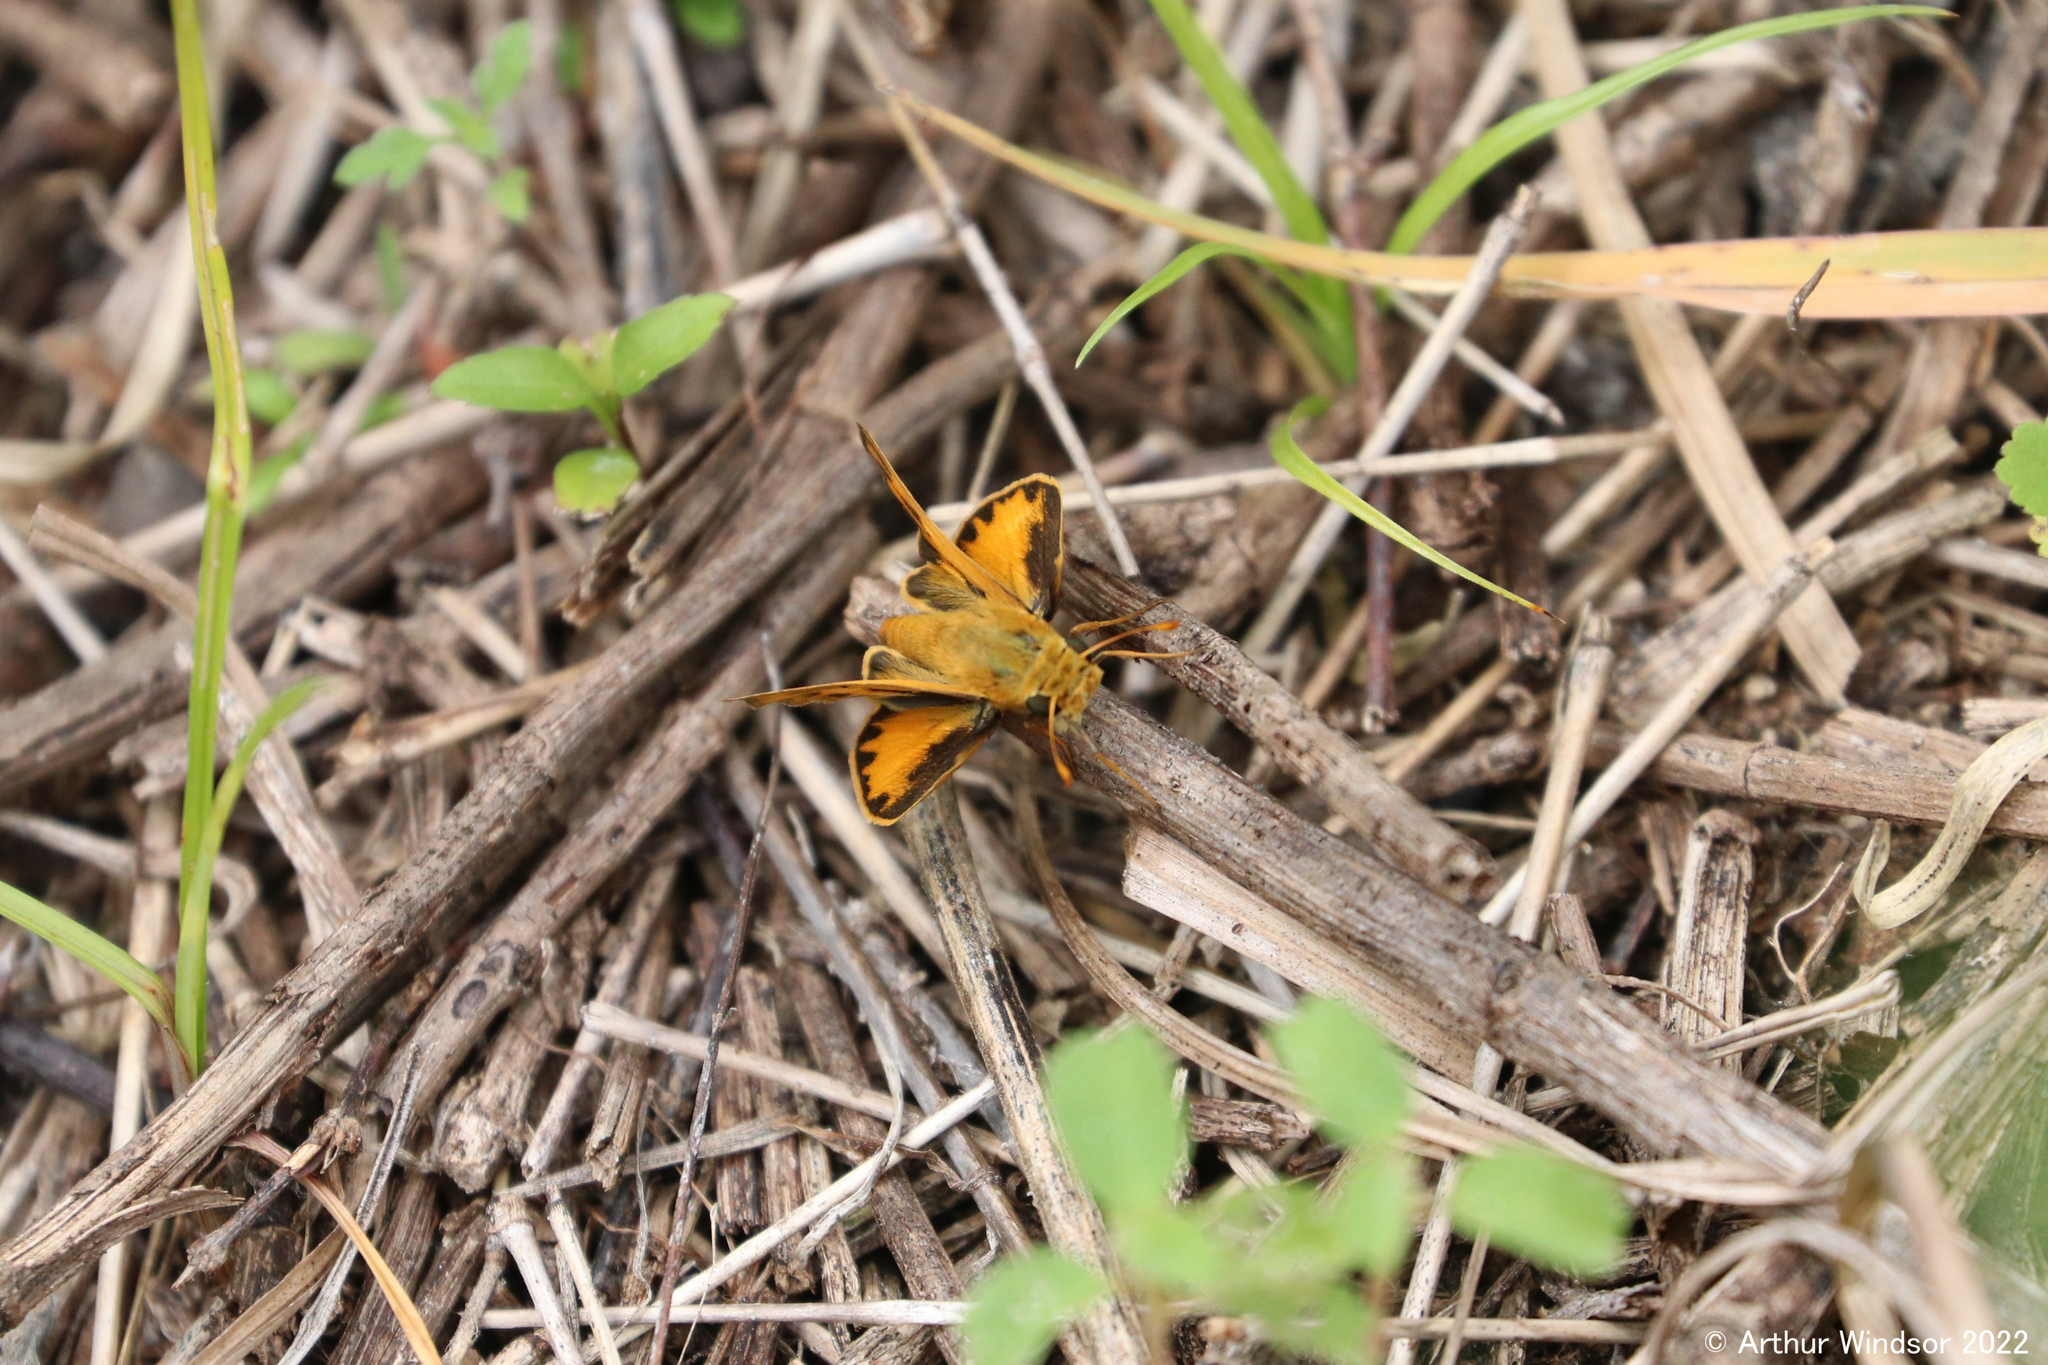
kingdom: Animalia
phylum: Arthropoda
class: Insecta
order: Lepidoptera
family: Hesperiidae
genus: Hylephila
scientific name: Hylephila phyleus
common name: Fiery skipper
